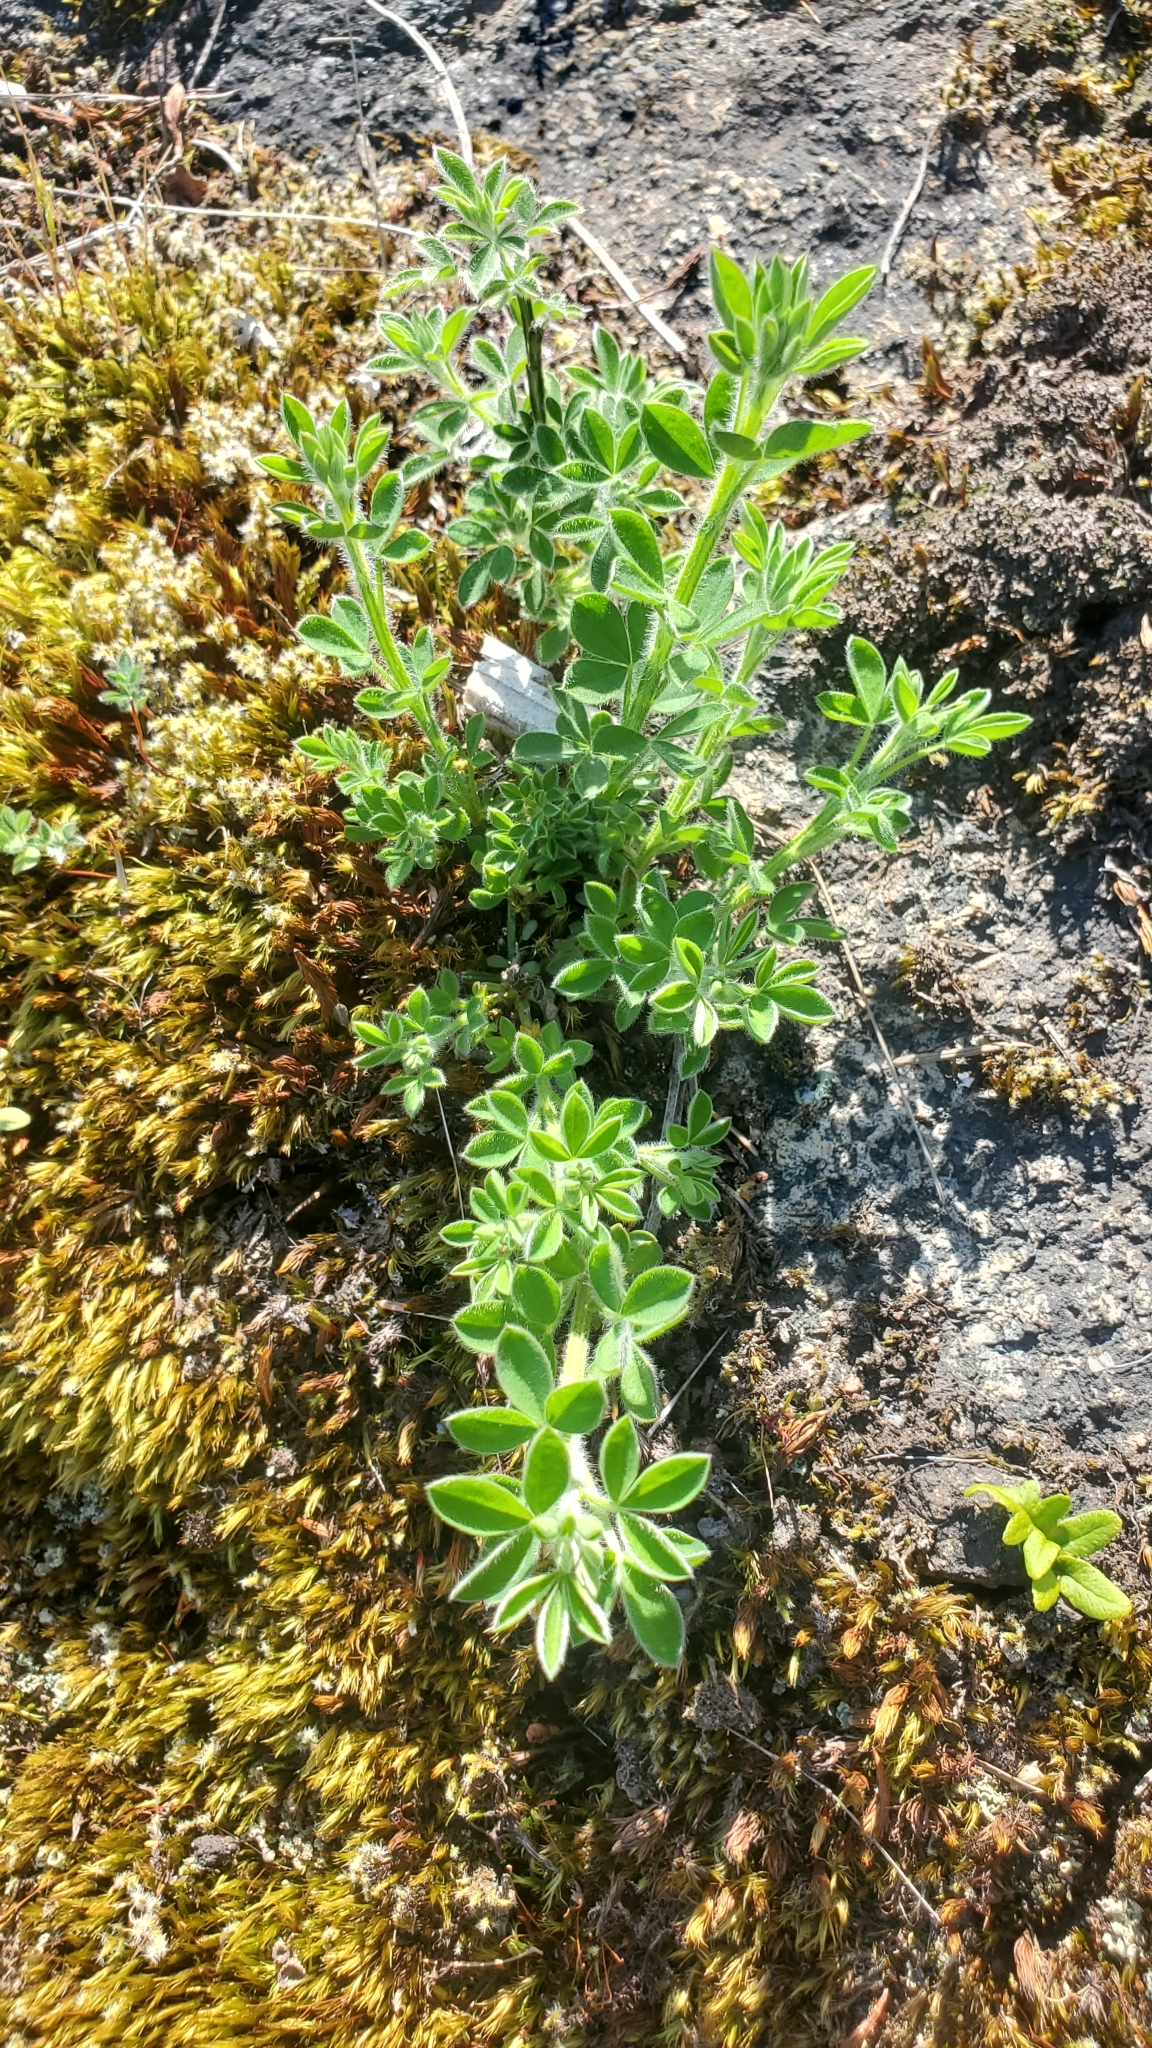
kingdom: Plantae
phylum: Tracheophyta
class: Magnoliopsida
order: Fabales
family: Fabaceae
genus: Cytisus
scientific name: Cytisus scoparius
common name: Scotch broom
